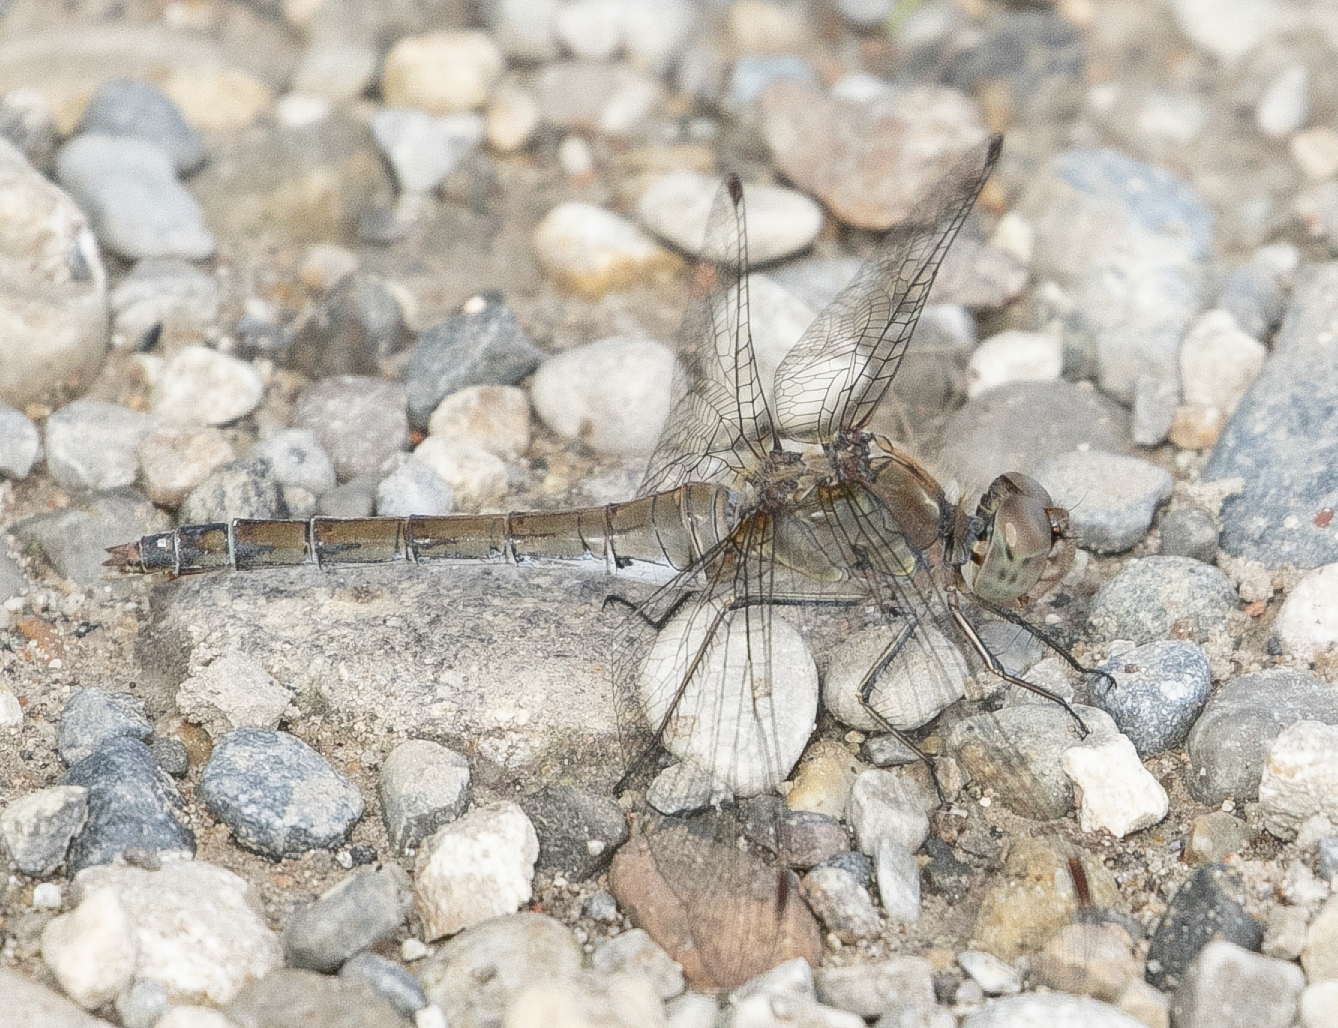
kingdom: Animalia
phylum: Arthropoda
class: Insecta
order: Odonata
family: Libellulidae
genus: Sympetrum
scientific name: Sympetrum striolatum
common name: Common darter
